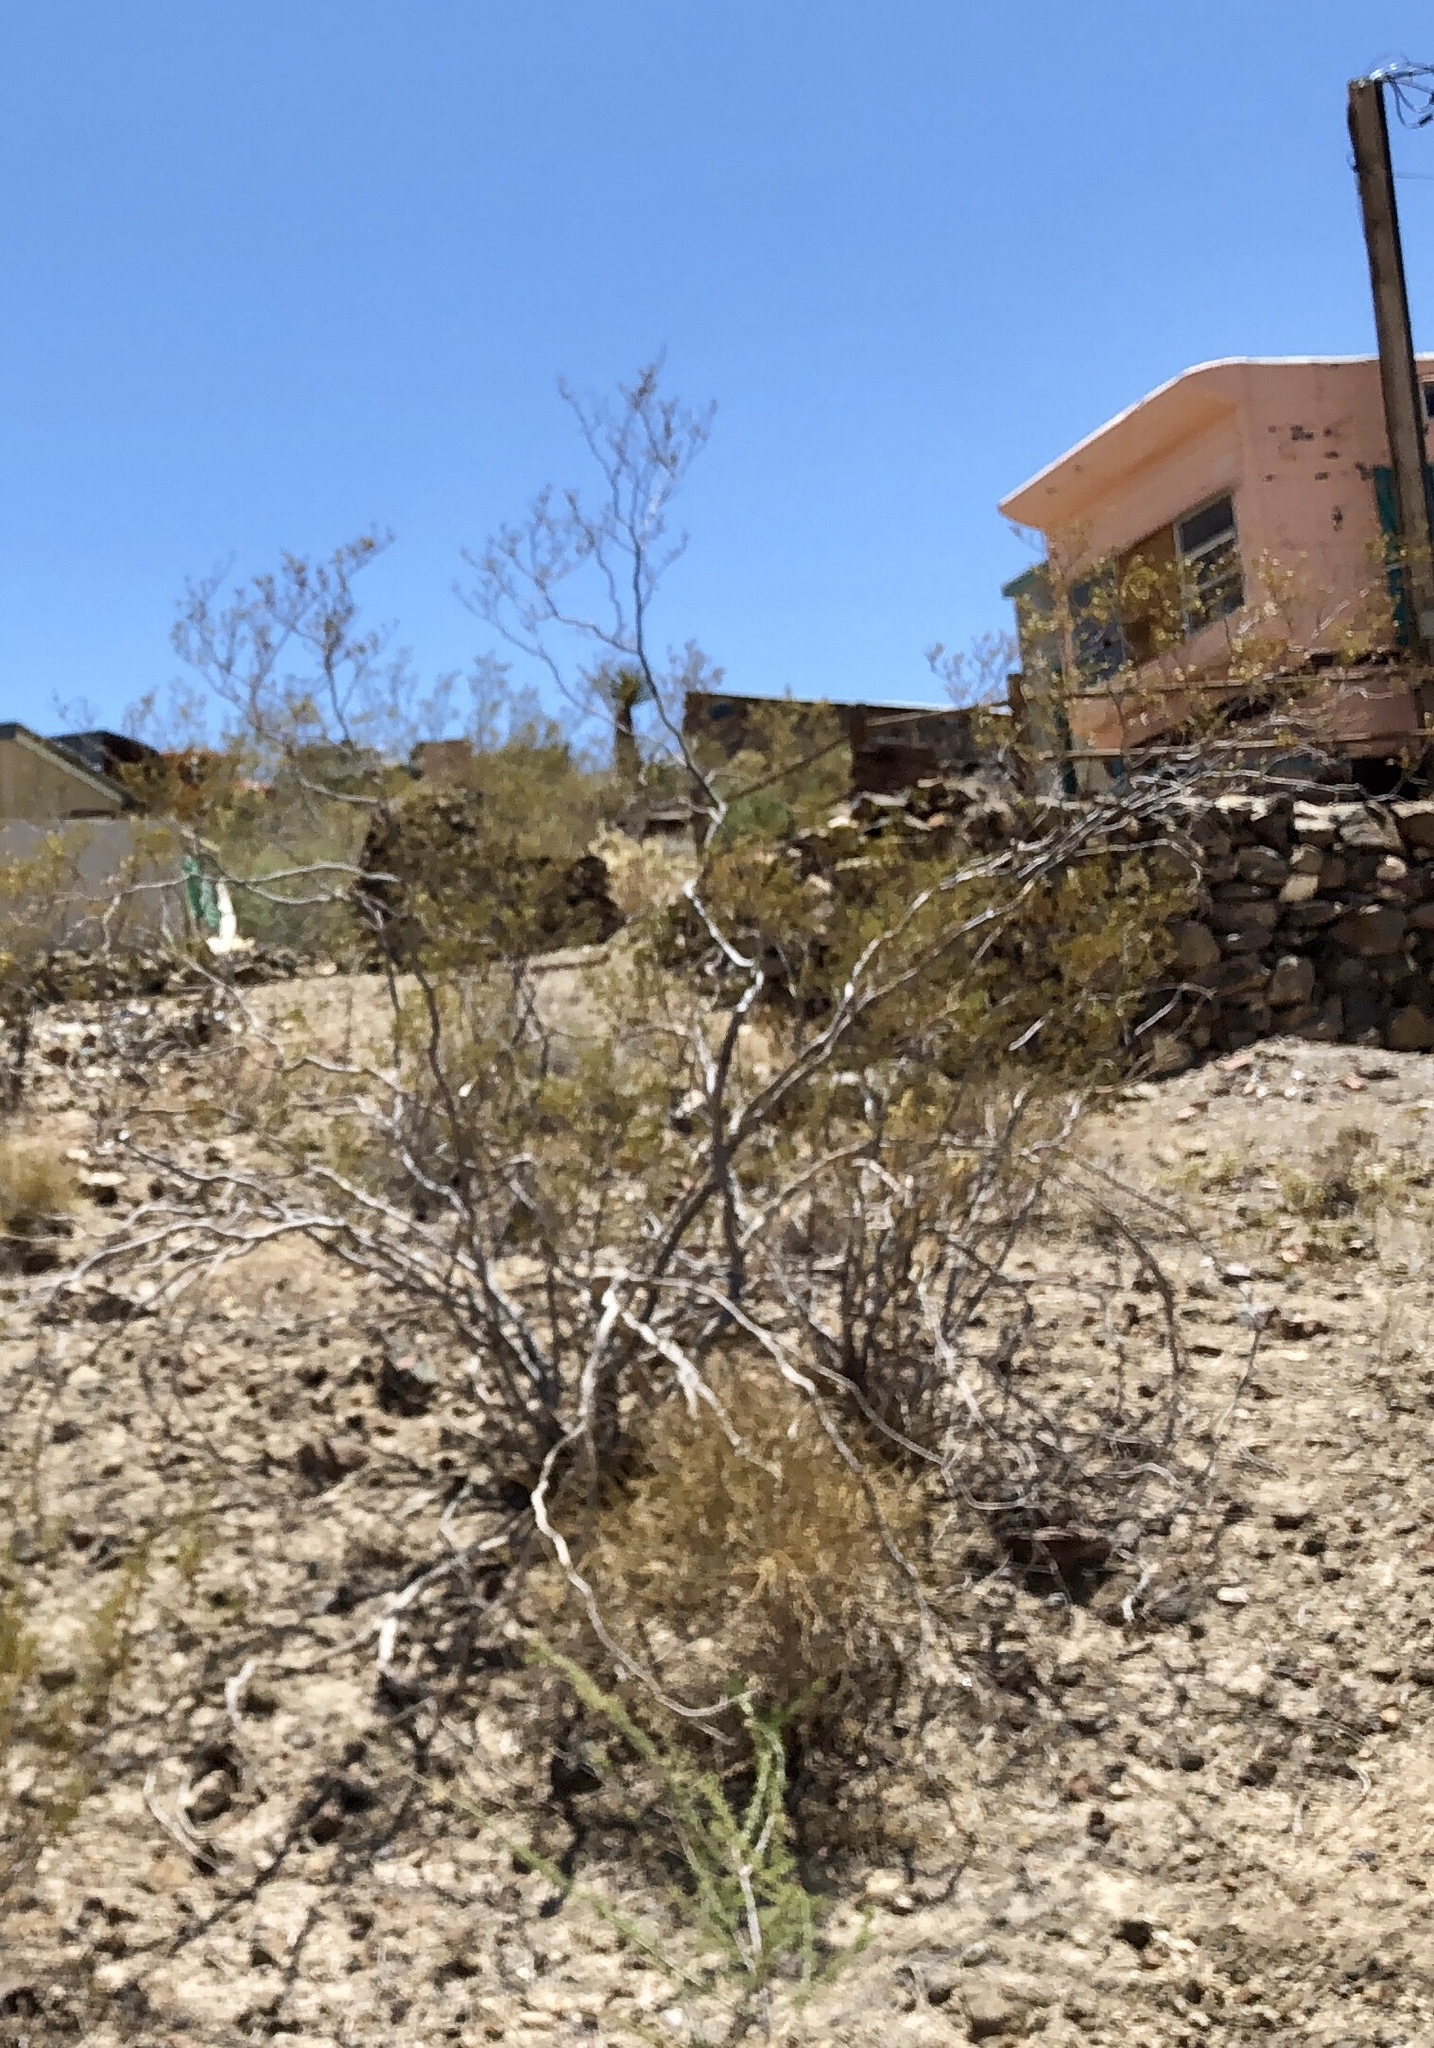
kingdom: Plantae
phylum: Tracheophyta
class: Magnoliopsida
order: Zygophyllales
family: Zygophyllaceae
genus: Larrea
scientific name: Larrea tridentata
